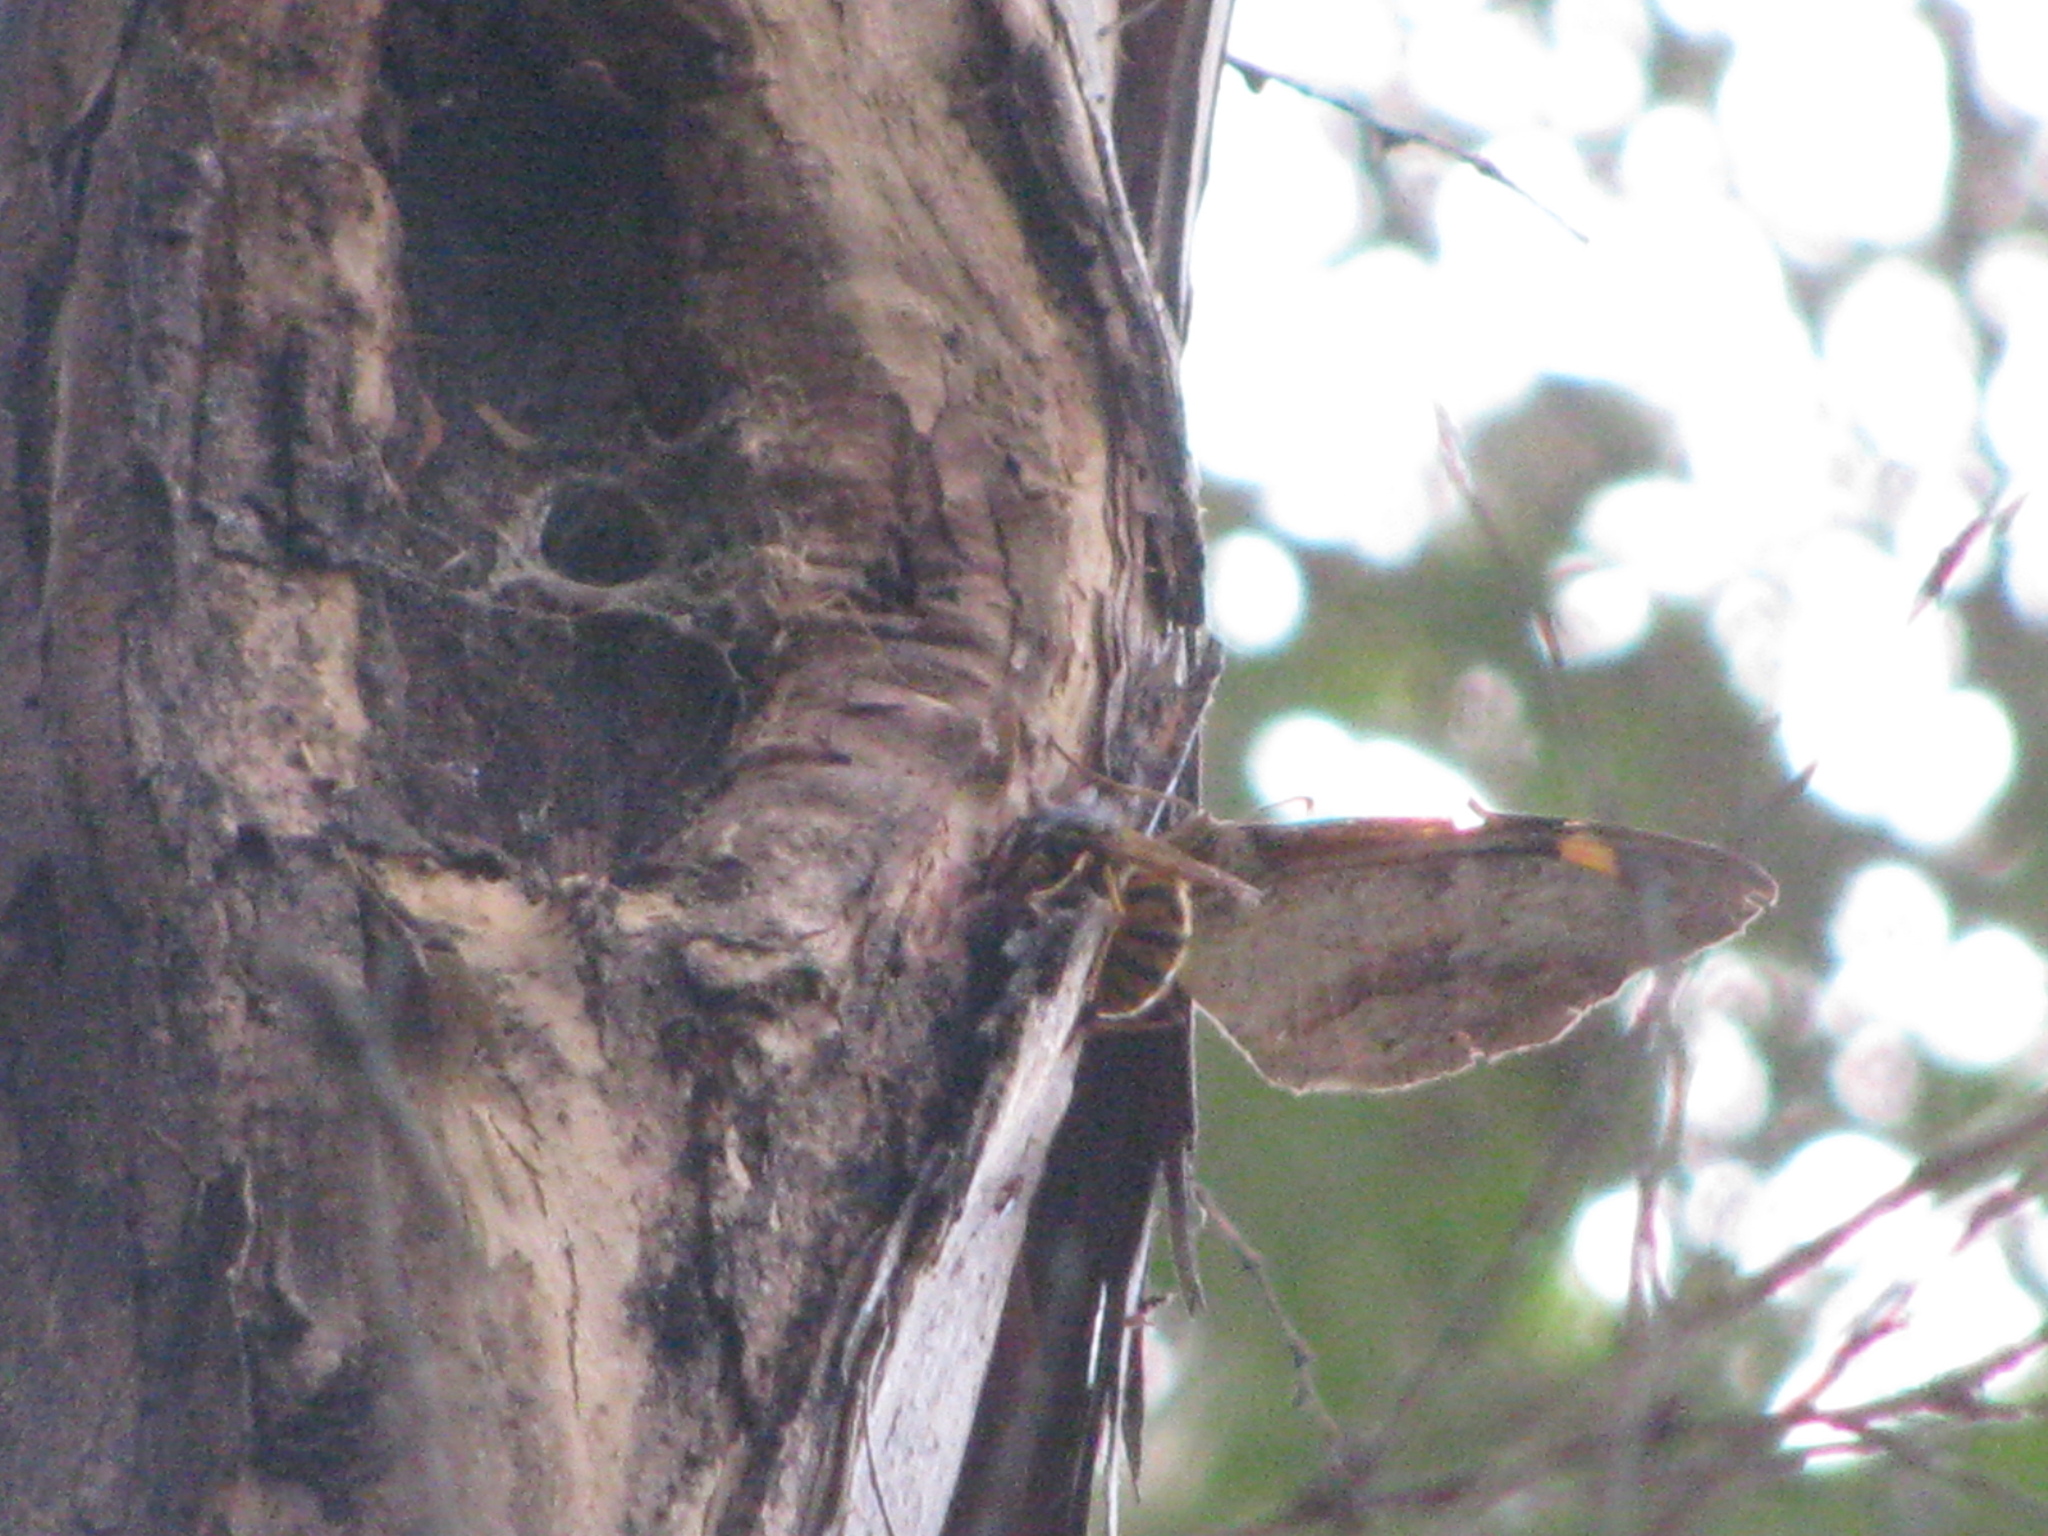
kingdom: Animalia
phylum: Arthropoda
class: Insecta
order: Lepidoptera
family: Nymphalidae
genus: Heteronympha
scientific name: Heteronympha merope
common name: Common brown
